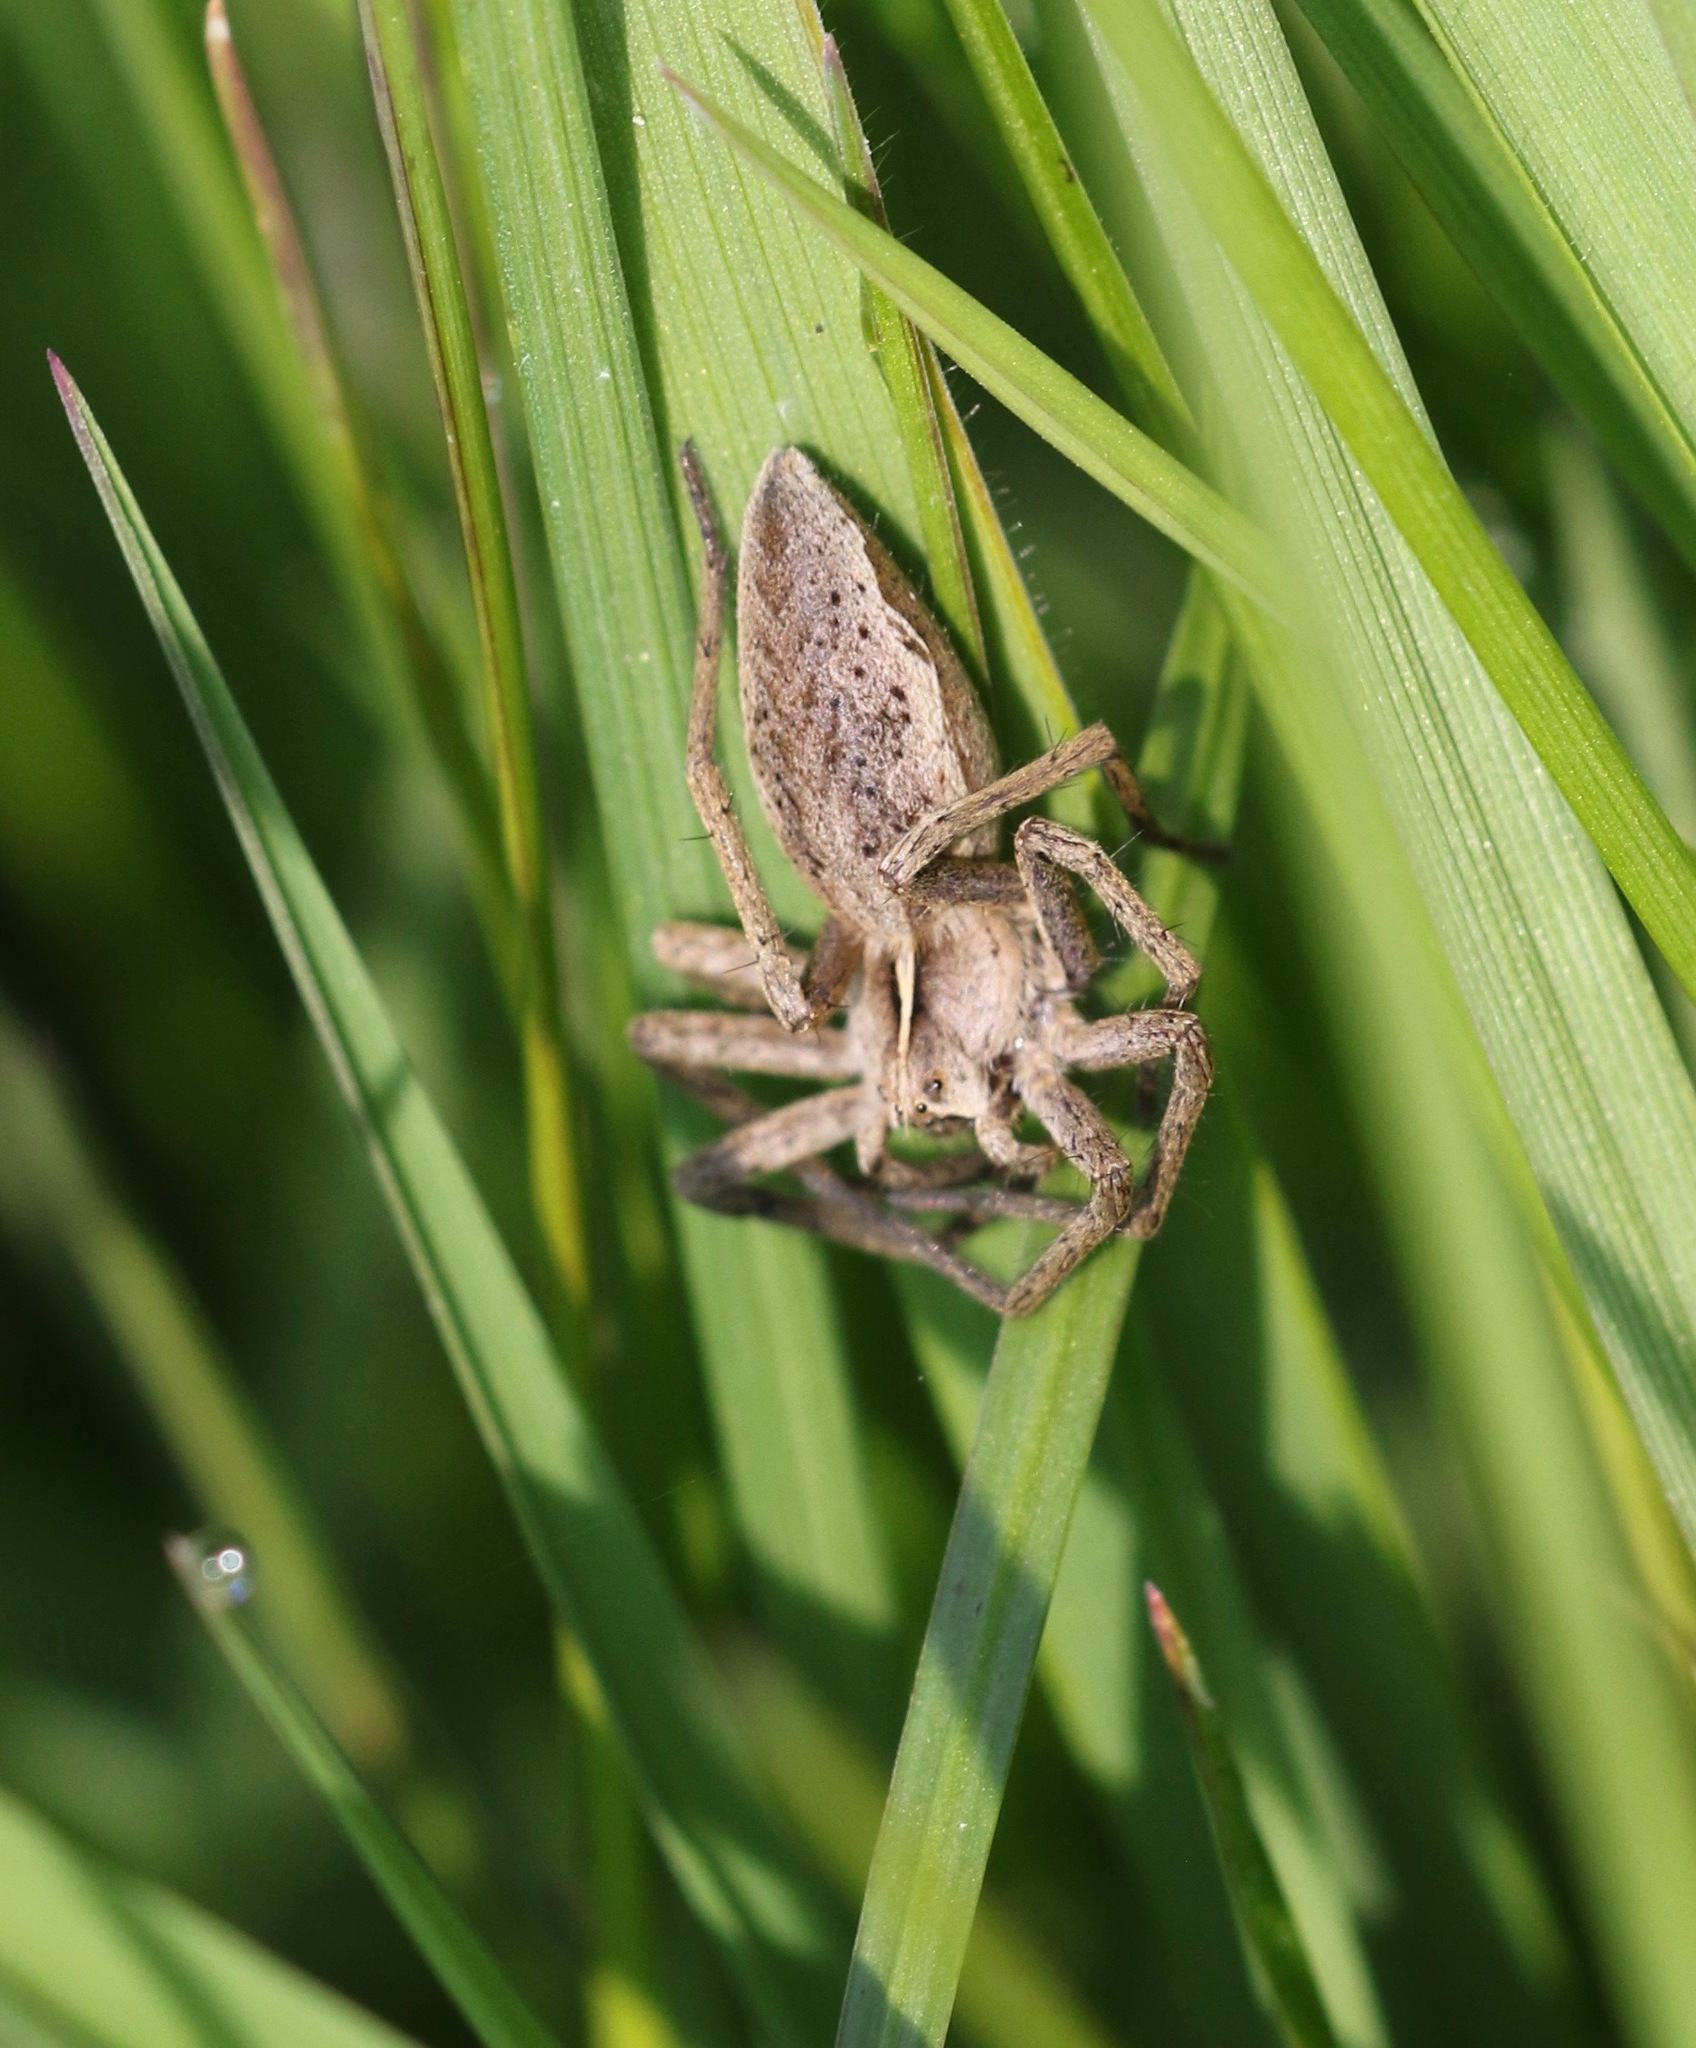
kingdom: Animalia
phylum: Arthropoda
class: Arachnida
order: Araneae
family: Pisauridae
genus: Pisaura
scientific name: Pisaura mirabilis
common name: Tent spider
